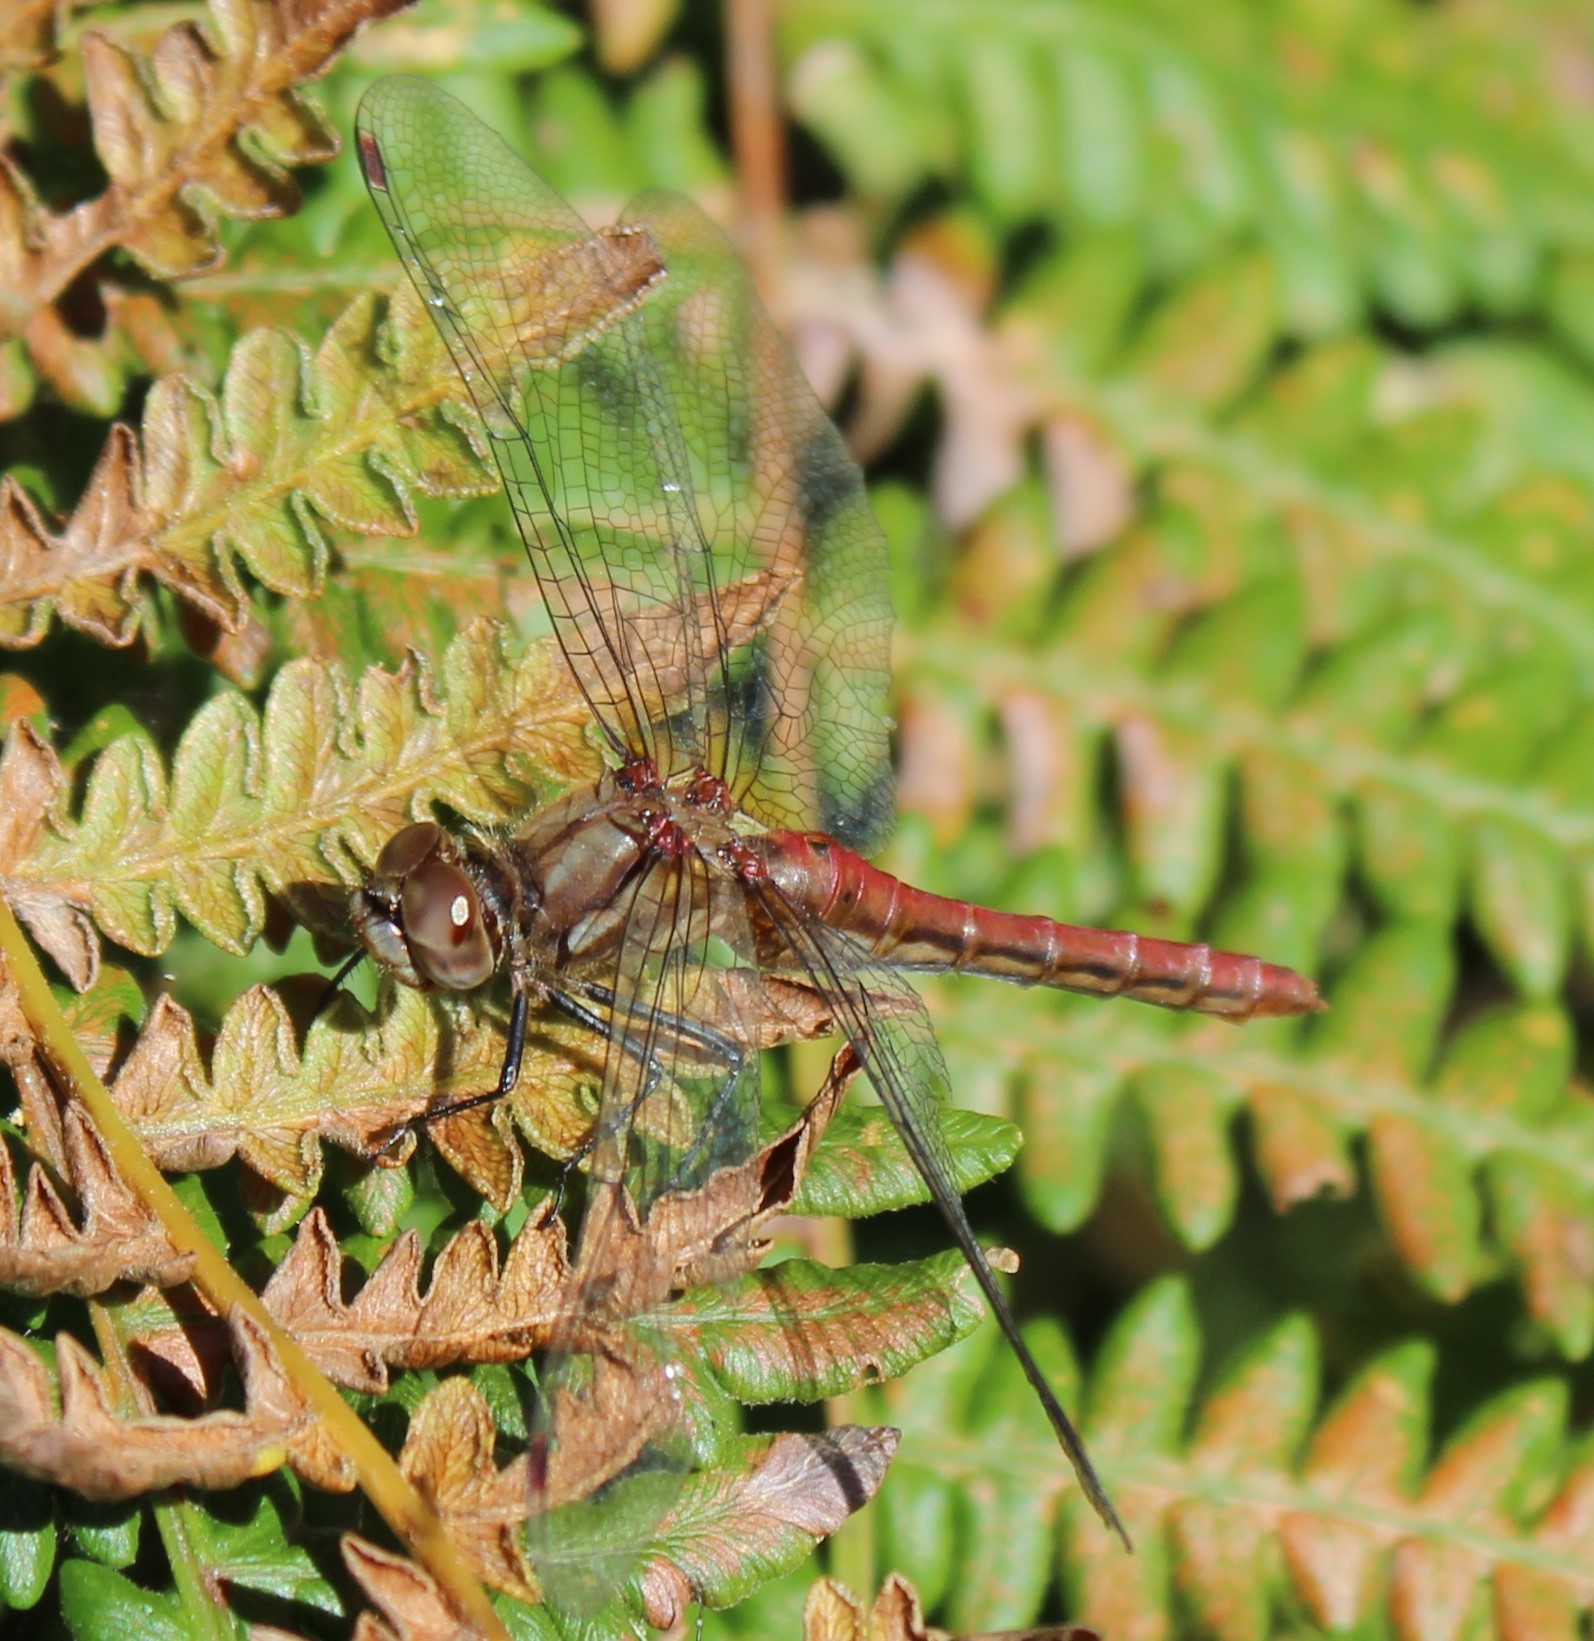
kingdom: Animalia
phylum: Arthropoda
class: Insecta
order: Odonata
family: Libellulidae
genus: Sympetrum
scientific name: Sympetrum pallipes
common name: Striped meadowhawk
